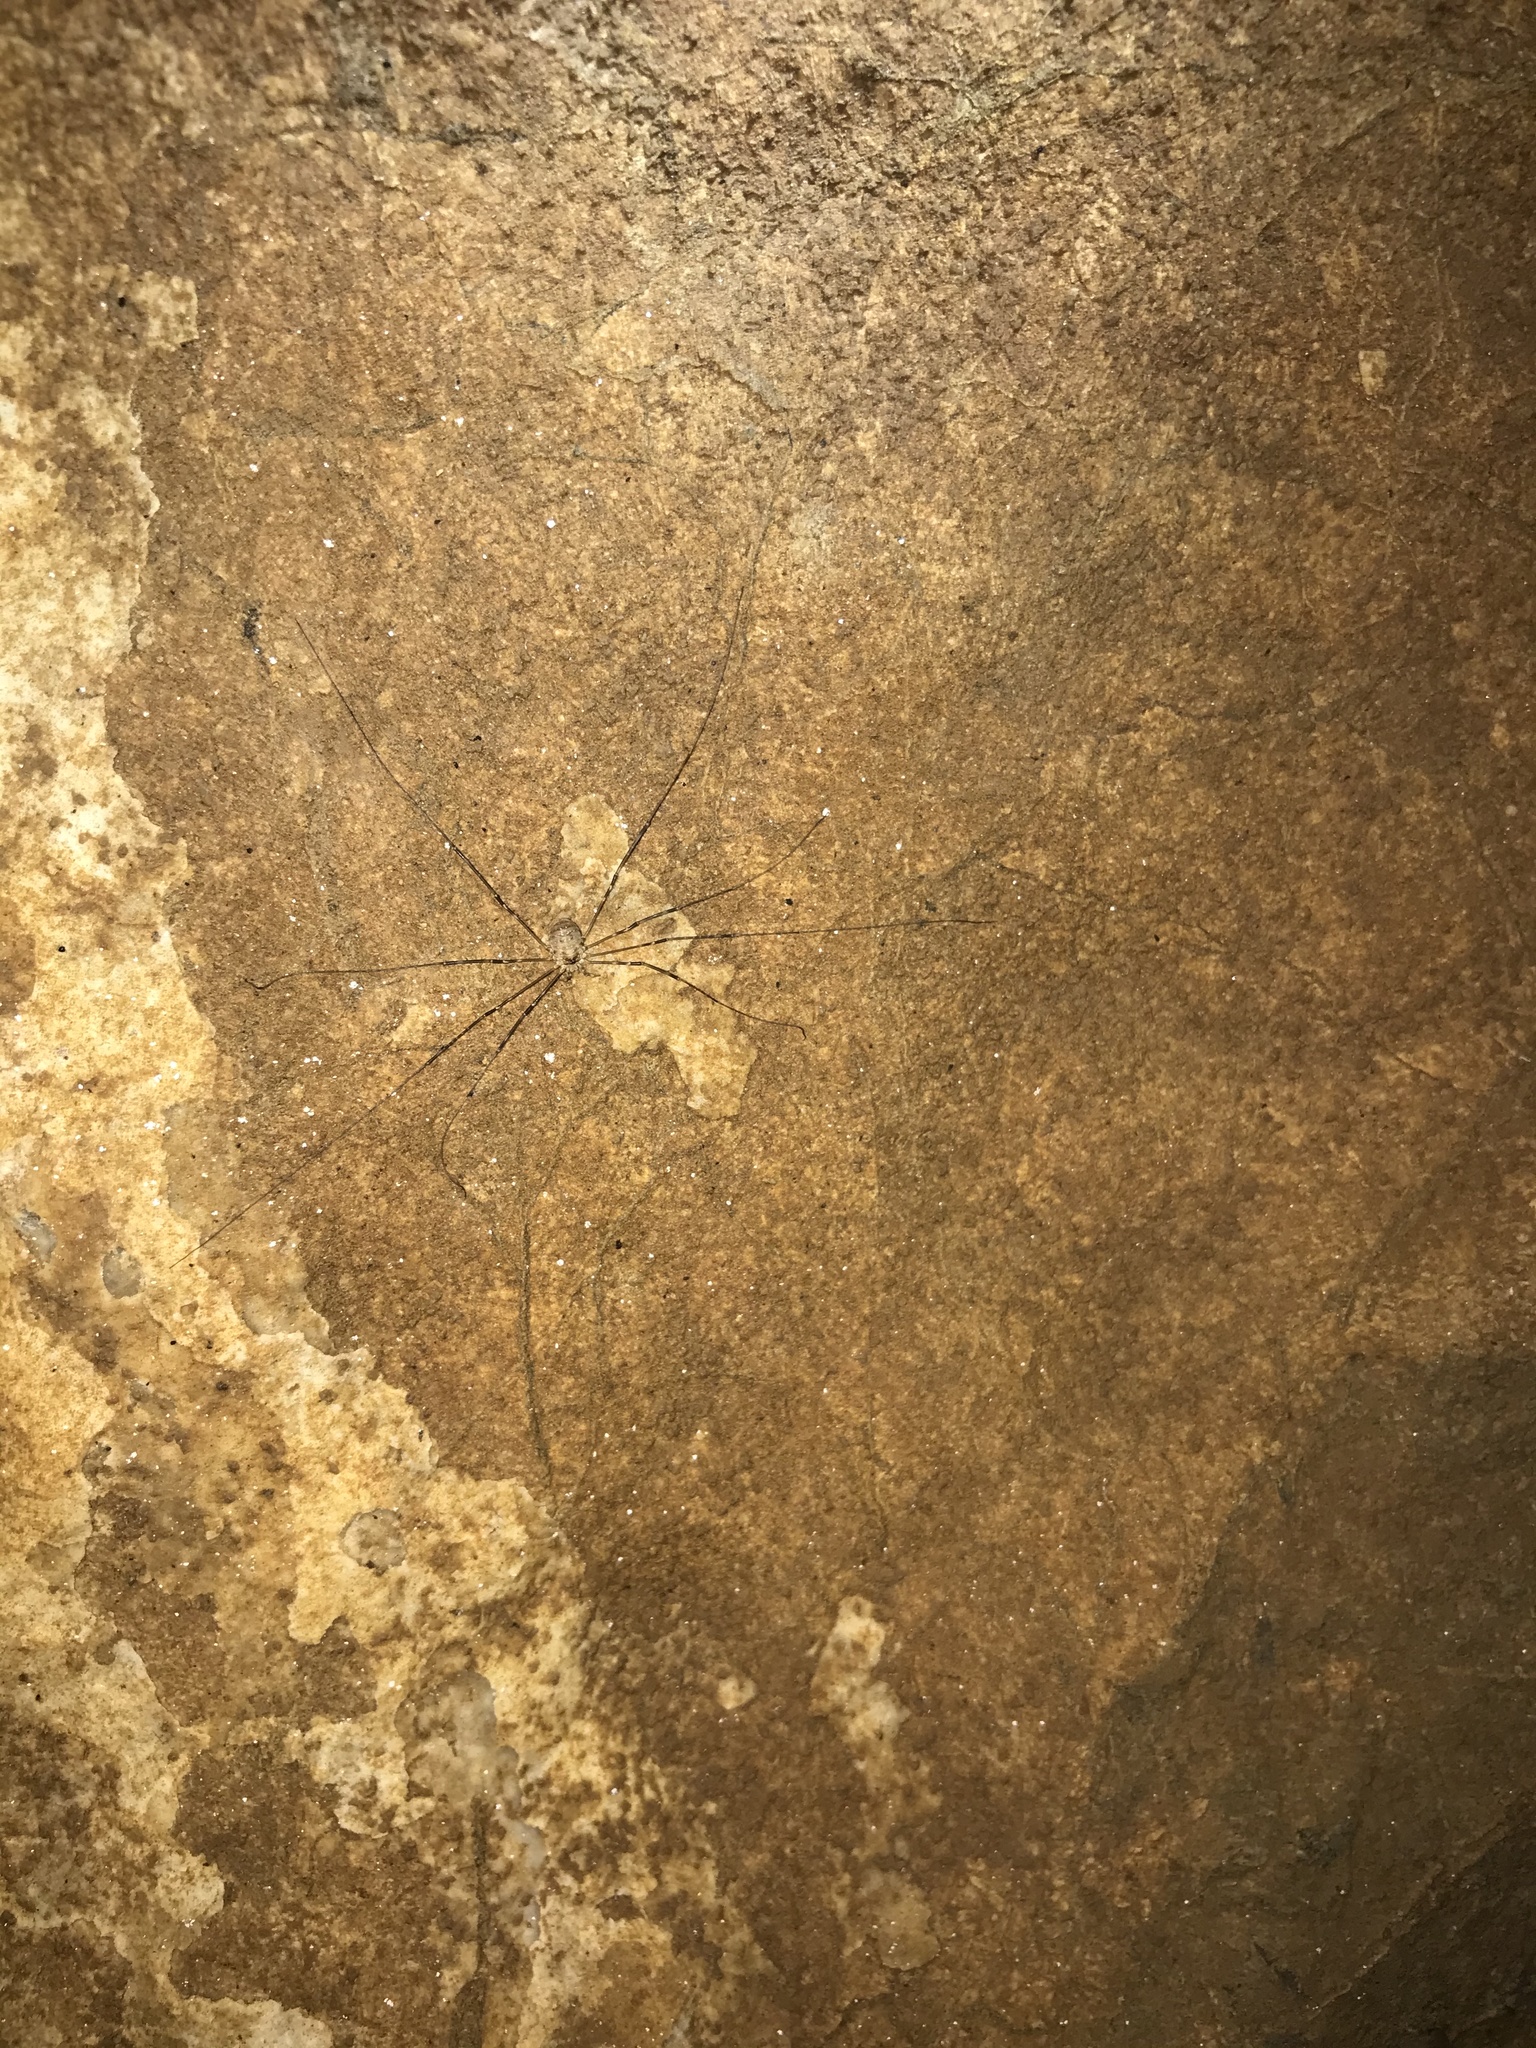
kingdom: Animalia
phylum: Arthropoda
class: Arachnida
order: Opiliones
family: Phalangiidae
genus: Amilenus
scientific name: Amilenus aurantiacus
